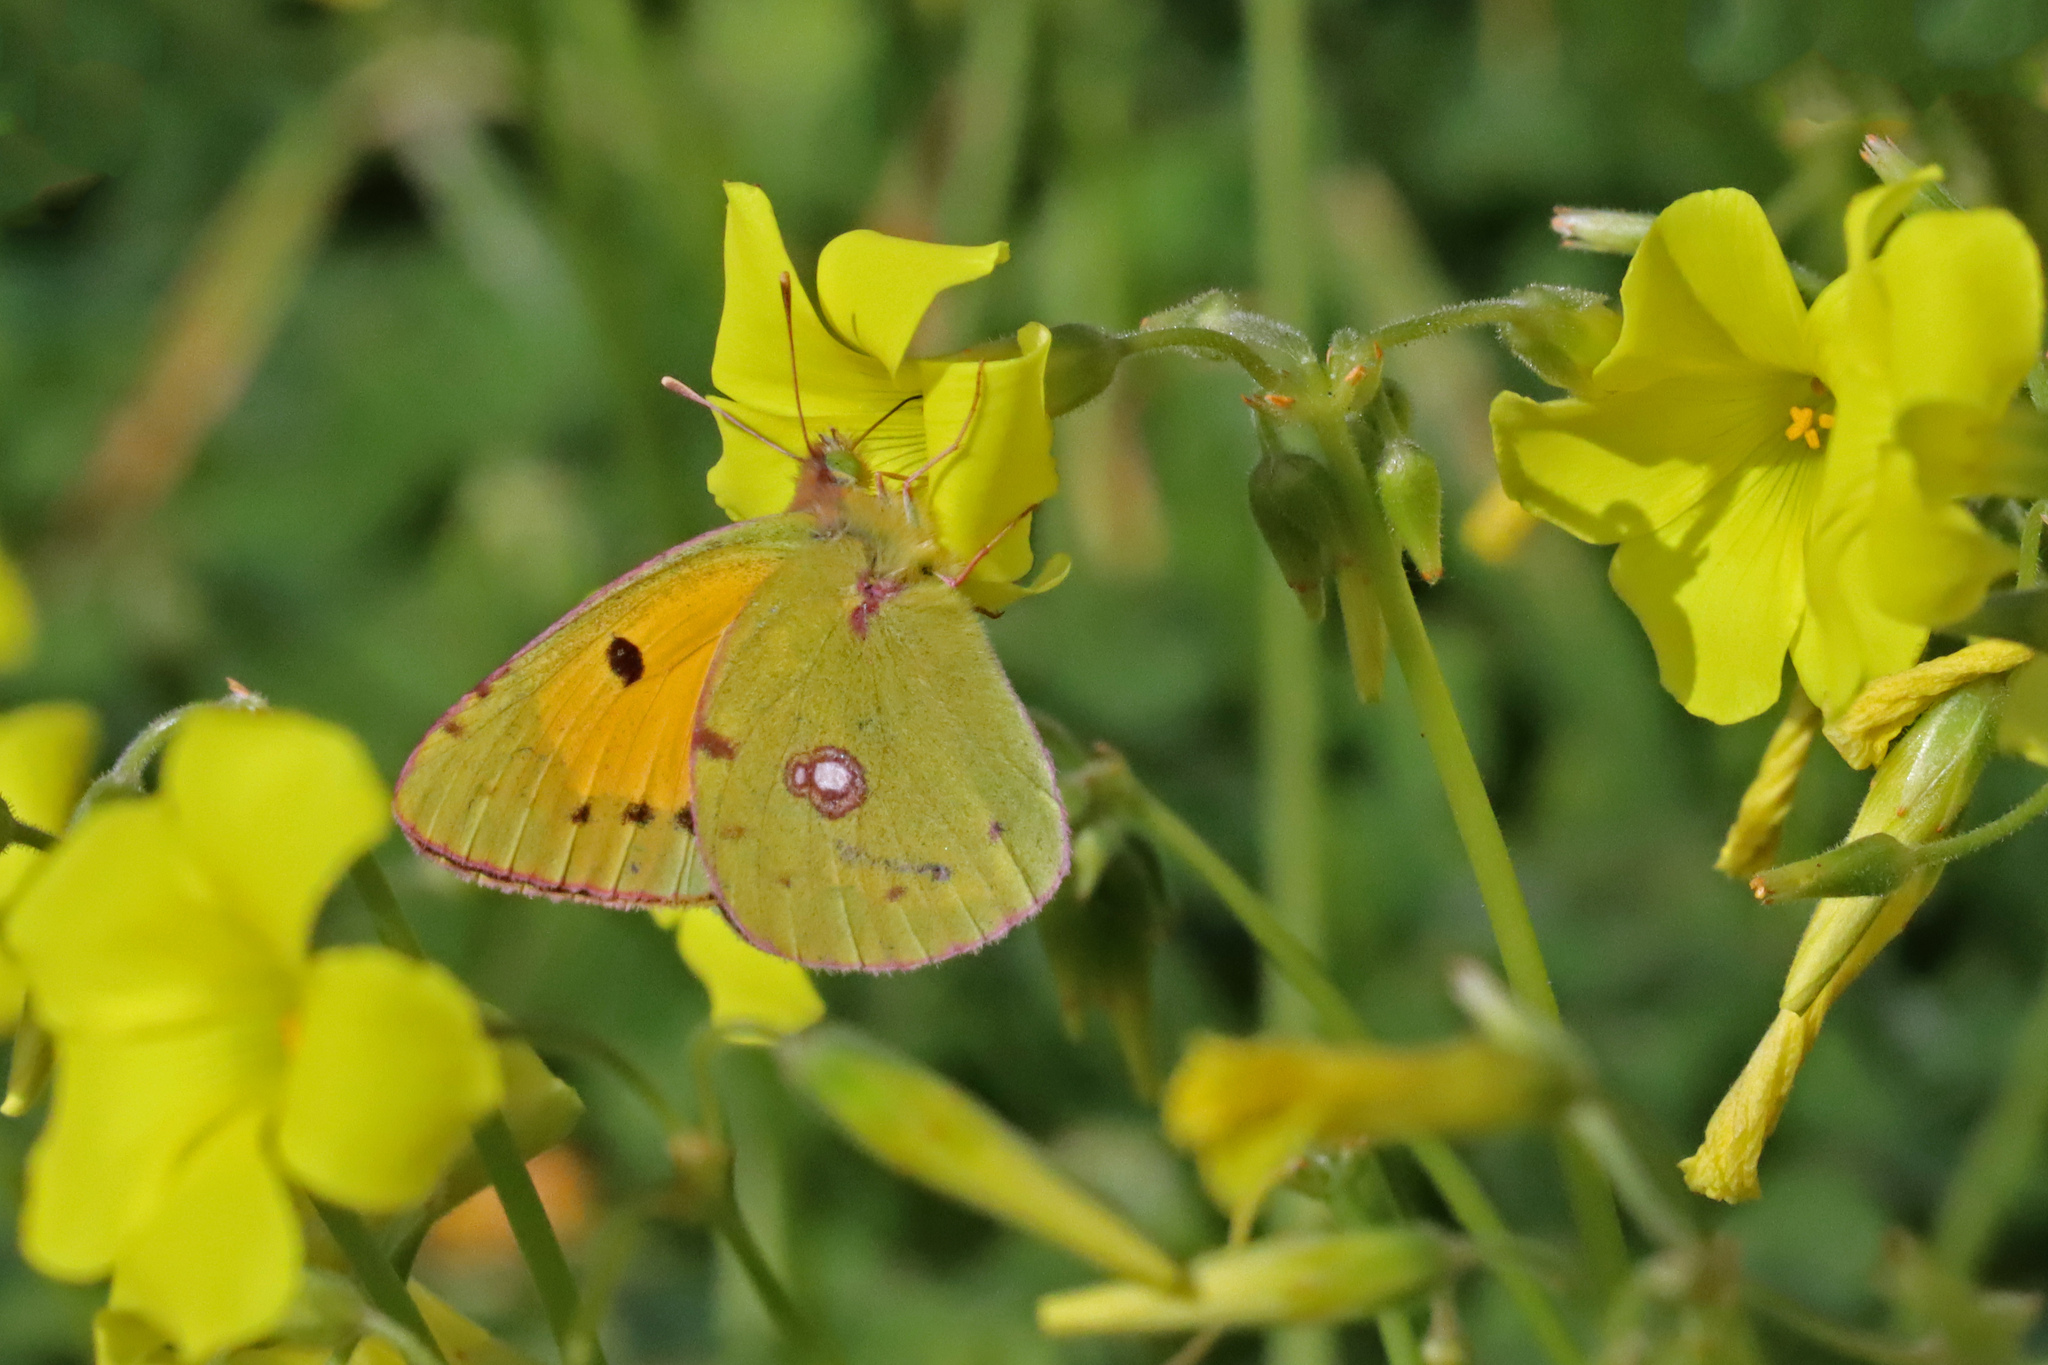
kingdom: Animalia
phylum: Arthropoda
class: Insecta
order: Lepidoptera
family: Pieridae
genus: Colias
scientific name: Colias croceus
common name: Clouded yellow
